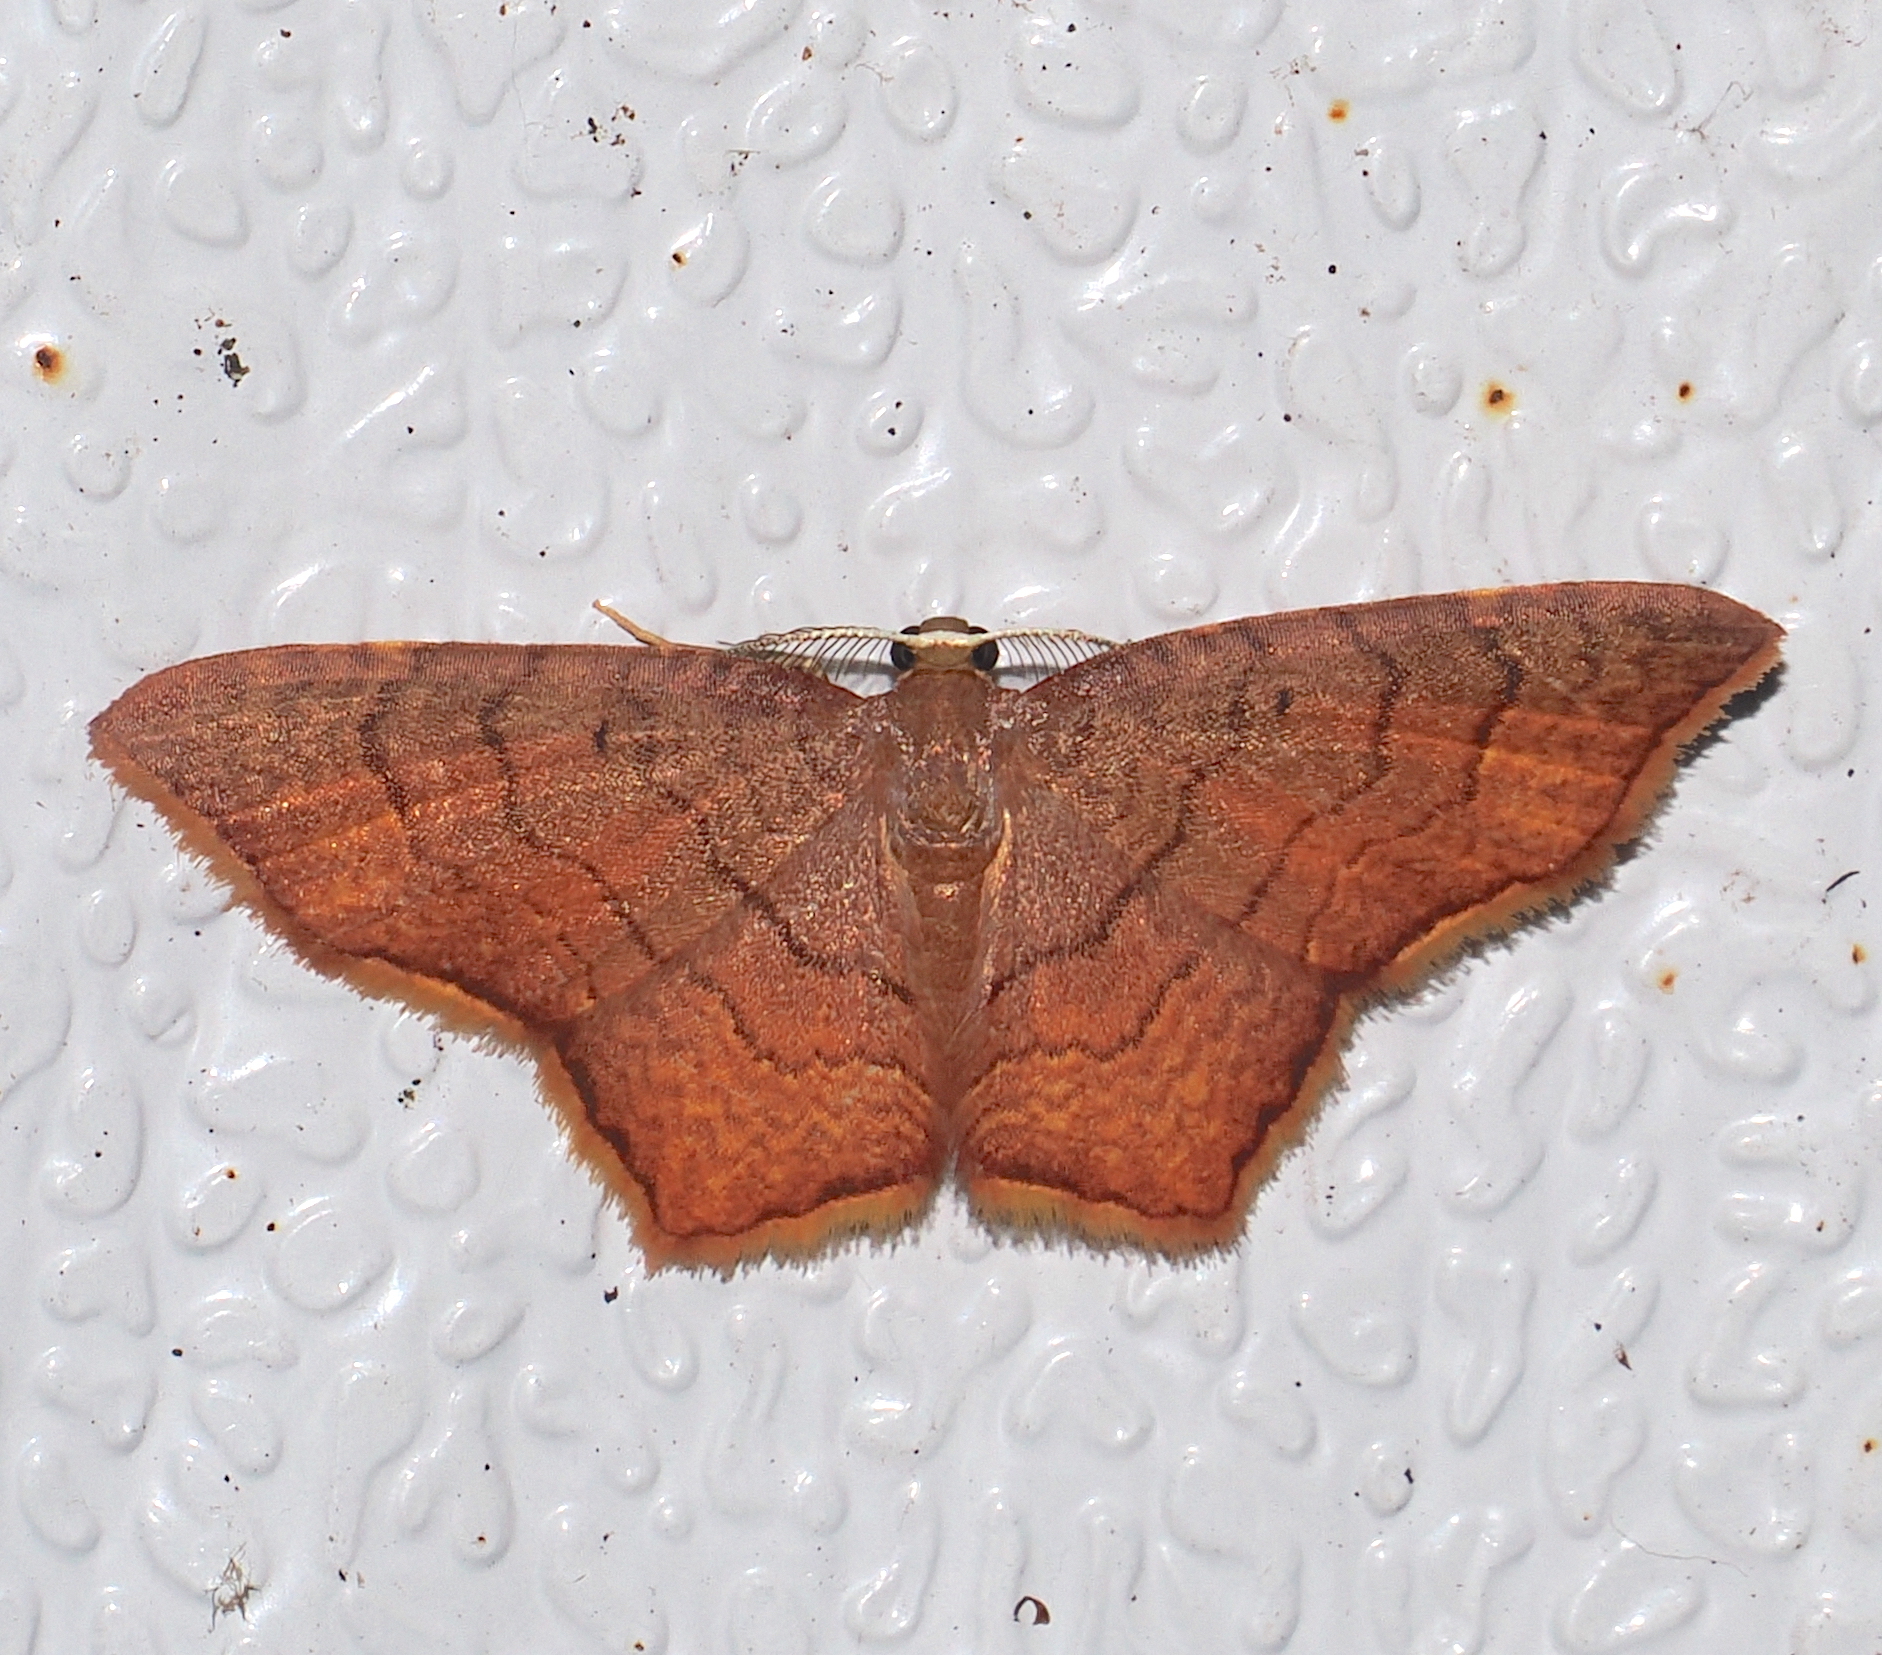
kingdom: Animalia
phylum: Arthropoda
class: Insecta
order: Lepidoptera
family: Geometridae
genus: Eois
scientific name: Eois semirosea
